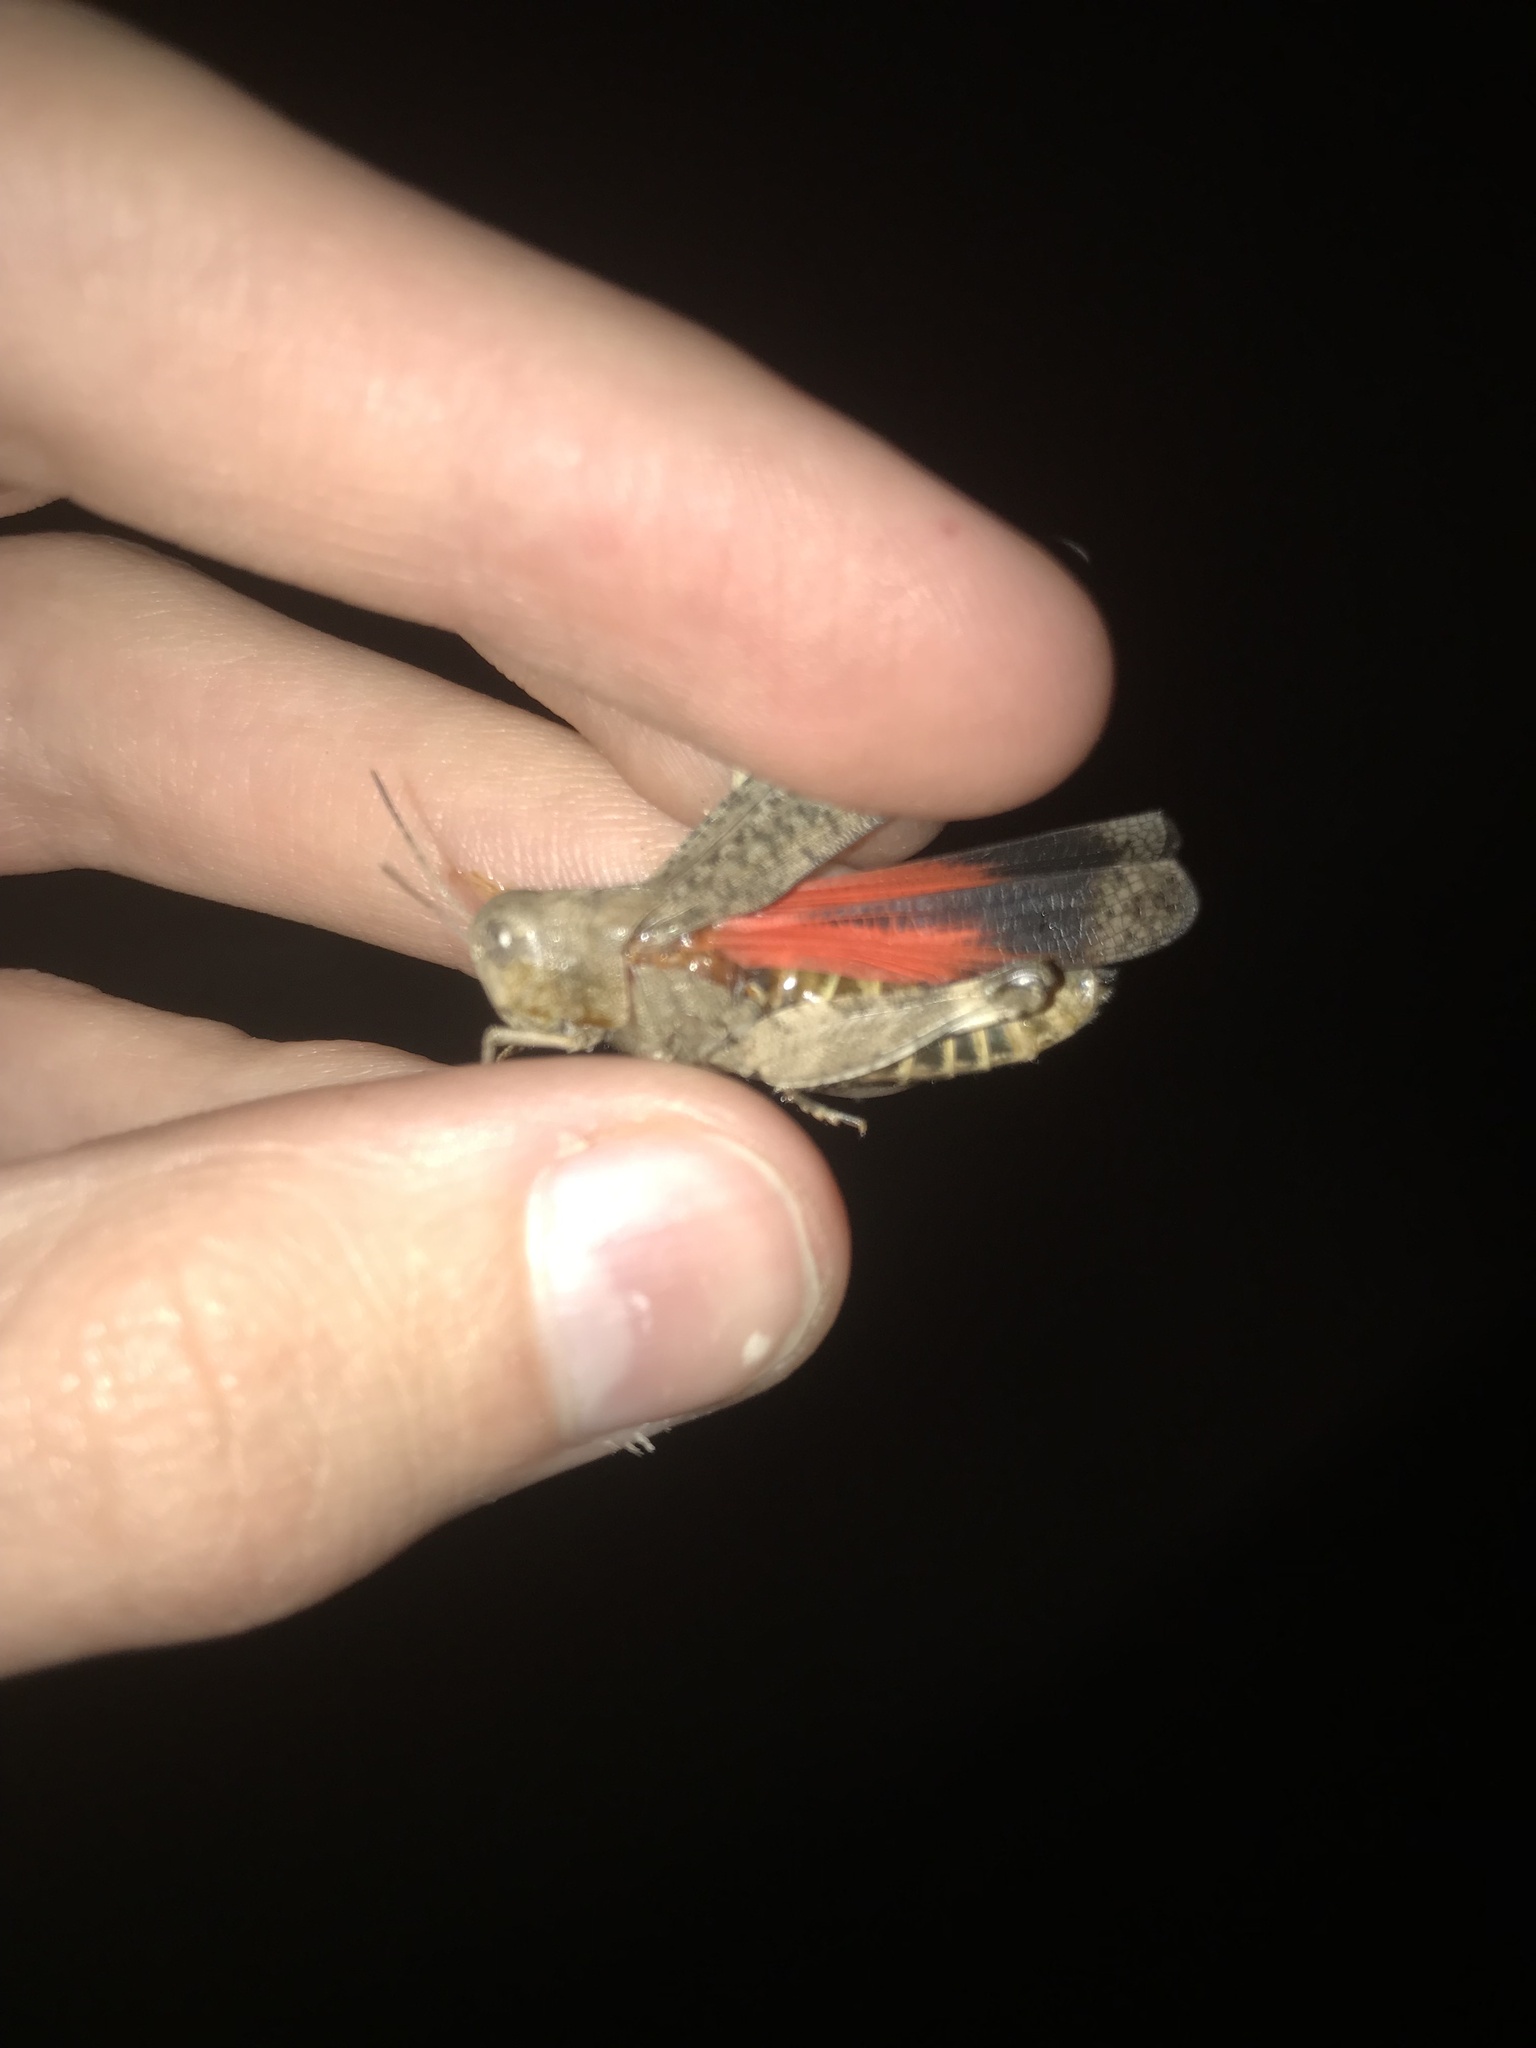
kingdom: Animalia
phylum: Arthropoda
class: Insecta
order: Orthoptera
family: Acrididae
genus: Arphia
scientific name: Arphia pseudo-nietana
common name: Red-winged grasshopper
